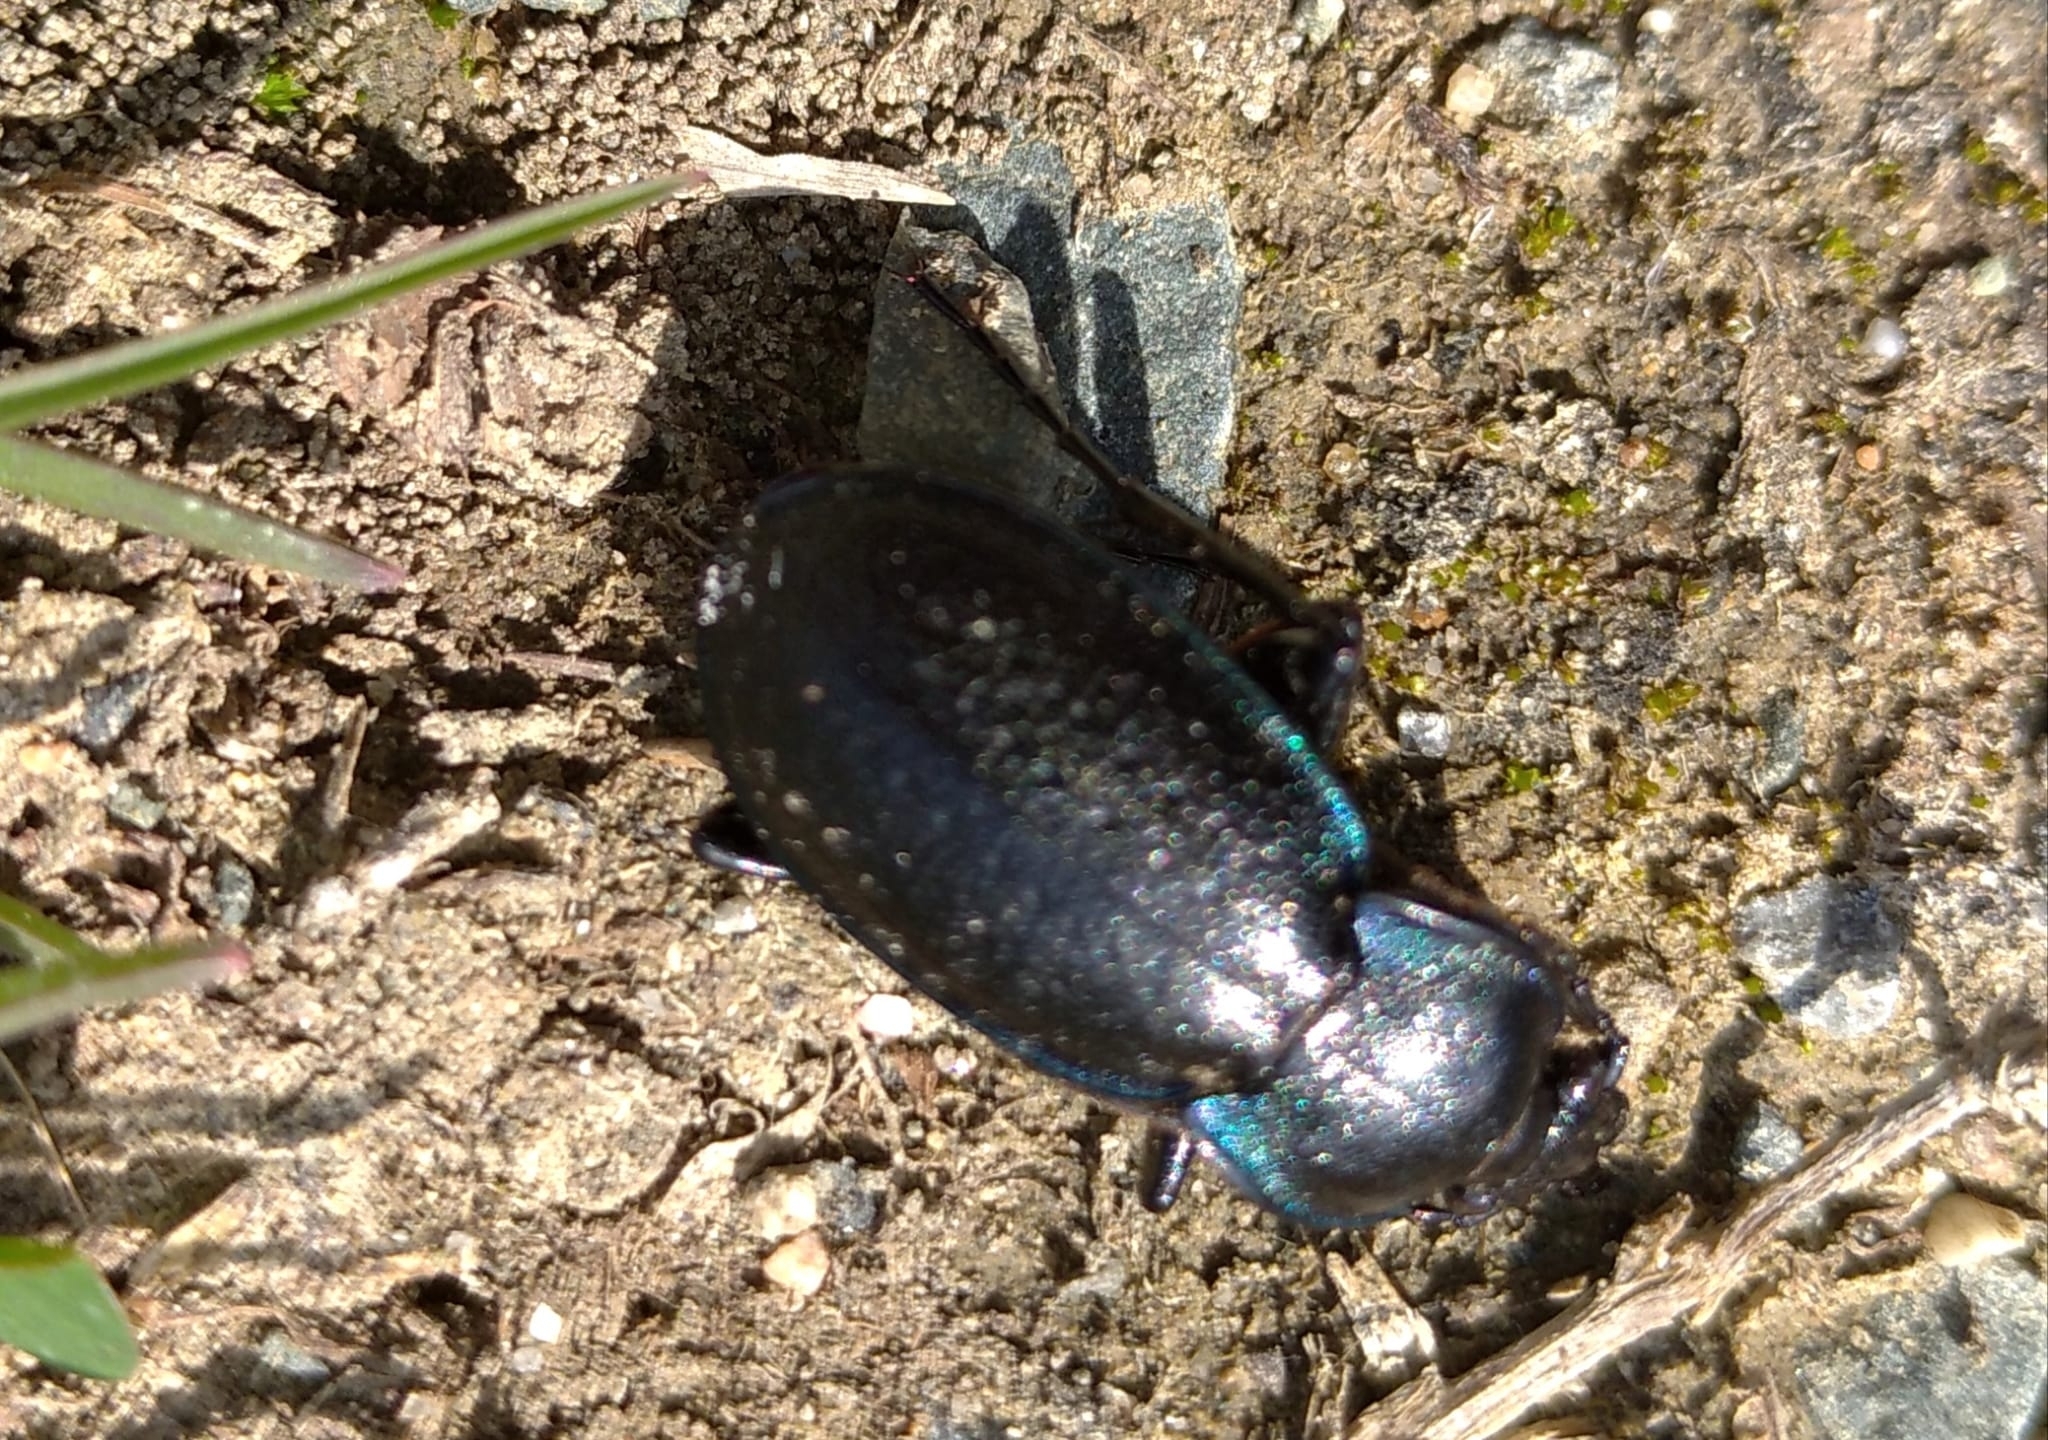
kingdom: Animalia
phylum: Arthropoda
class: Insecta
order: Coleoptera
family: Carabidae
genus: Carabus
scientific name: Carabus wiedemanni
